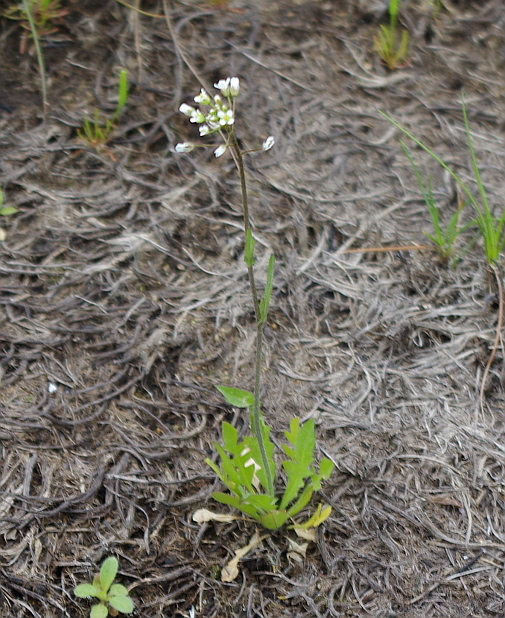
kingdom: Plantae
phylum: Tracheophyta
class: Magnoliopsida
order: Brassicales
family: Brassicaceae
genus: Capsella
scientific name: Capsella bursa-pastoris
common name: Shepherd's purse
